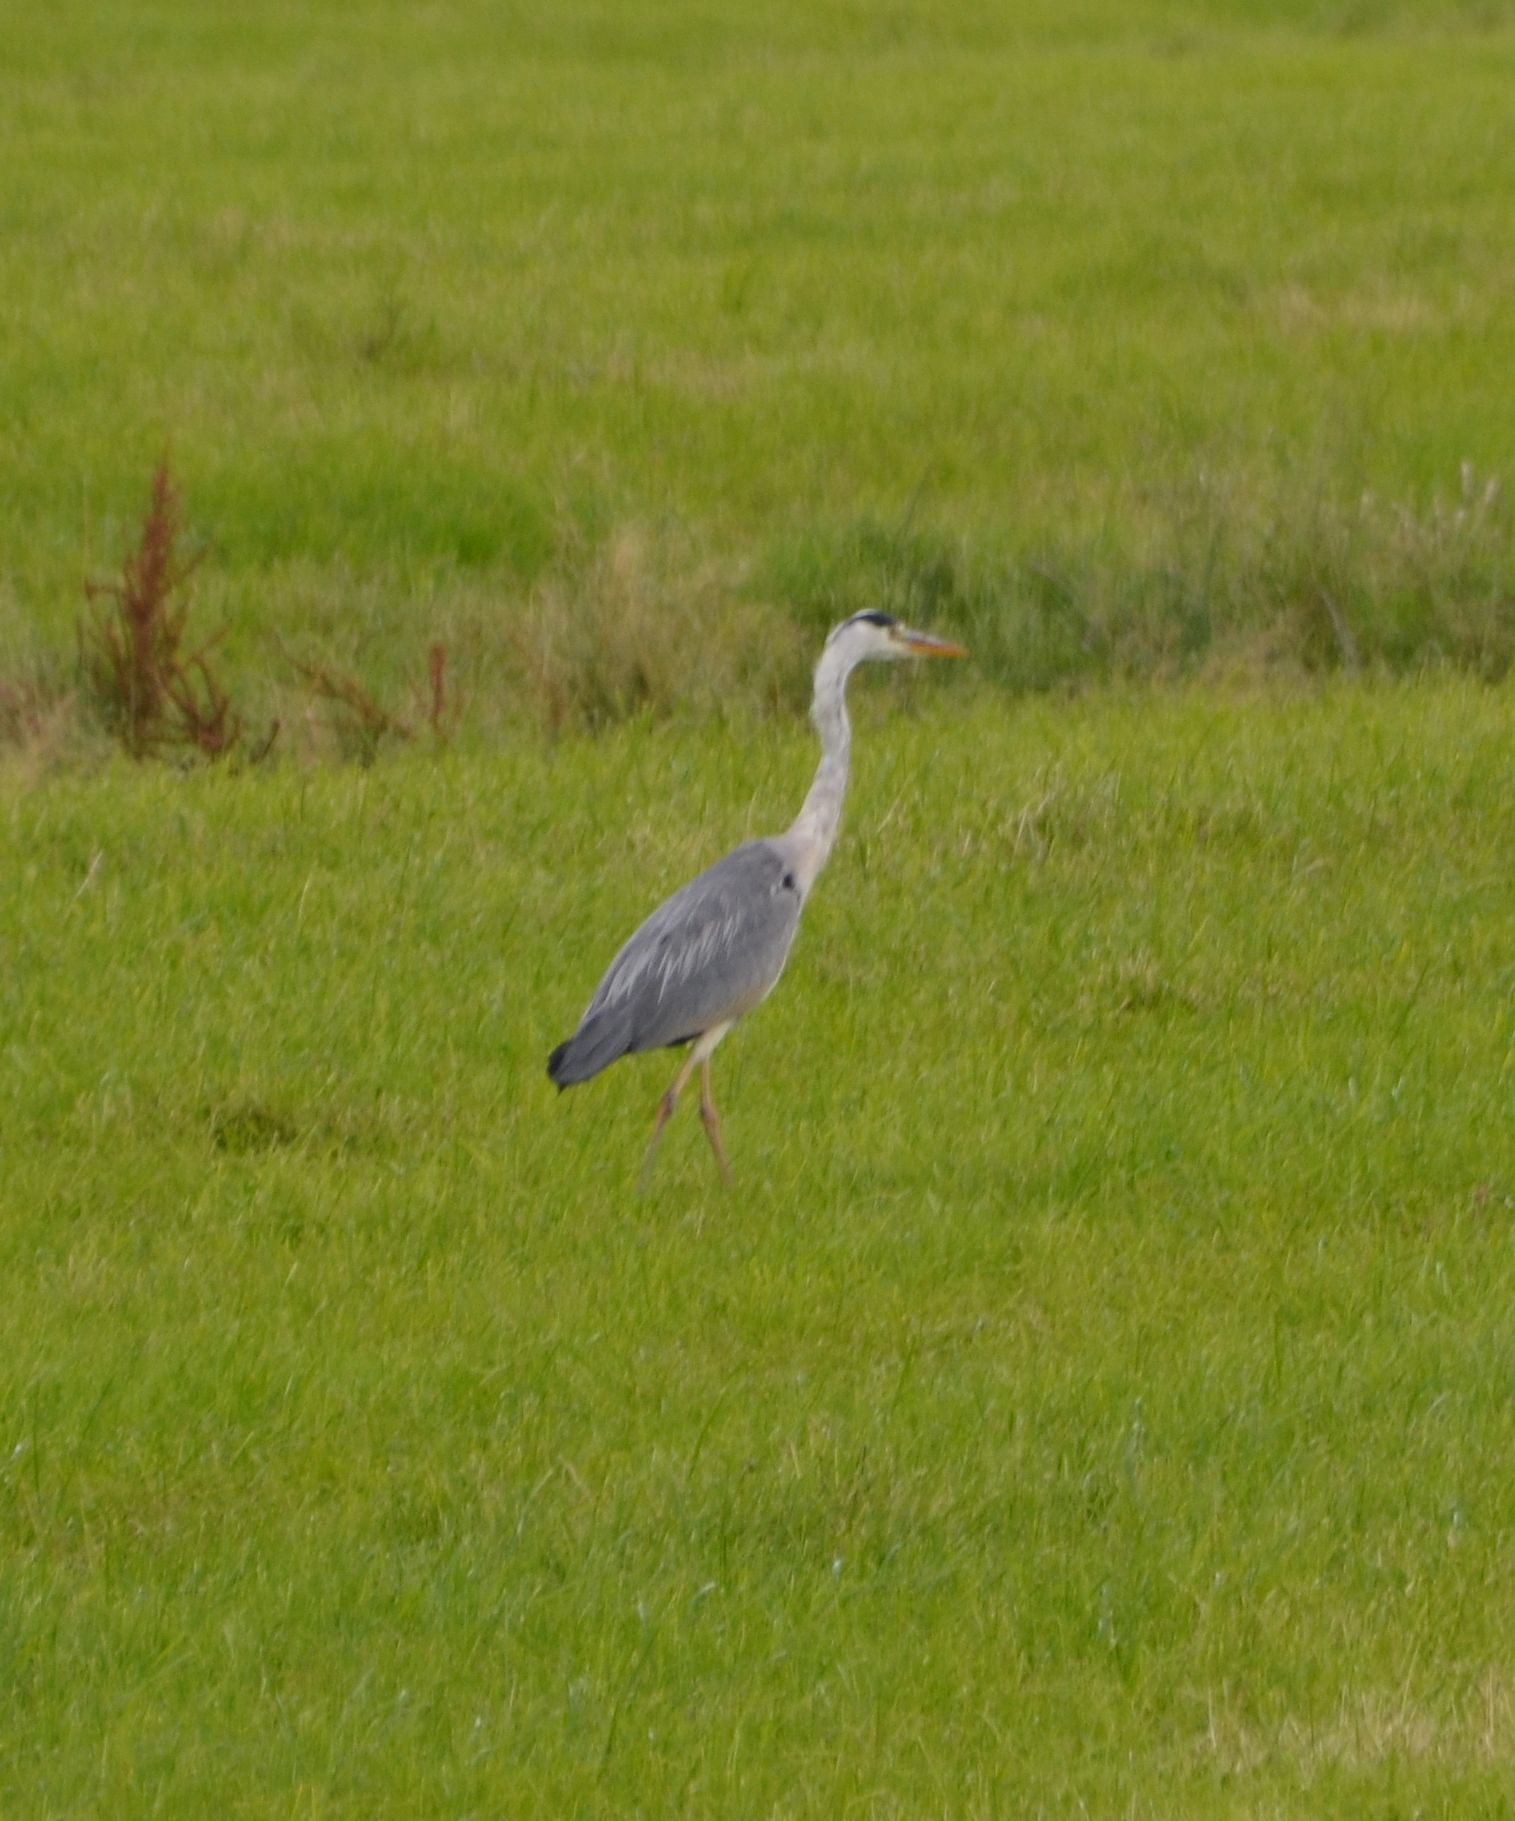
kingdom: Animalia
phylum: Chordata
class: Aves
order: Pelecaniformes
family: Ardeidae
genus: Ardea
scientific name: Ardea cinerea
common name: Grey heron
